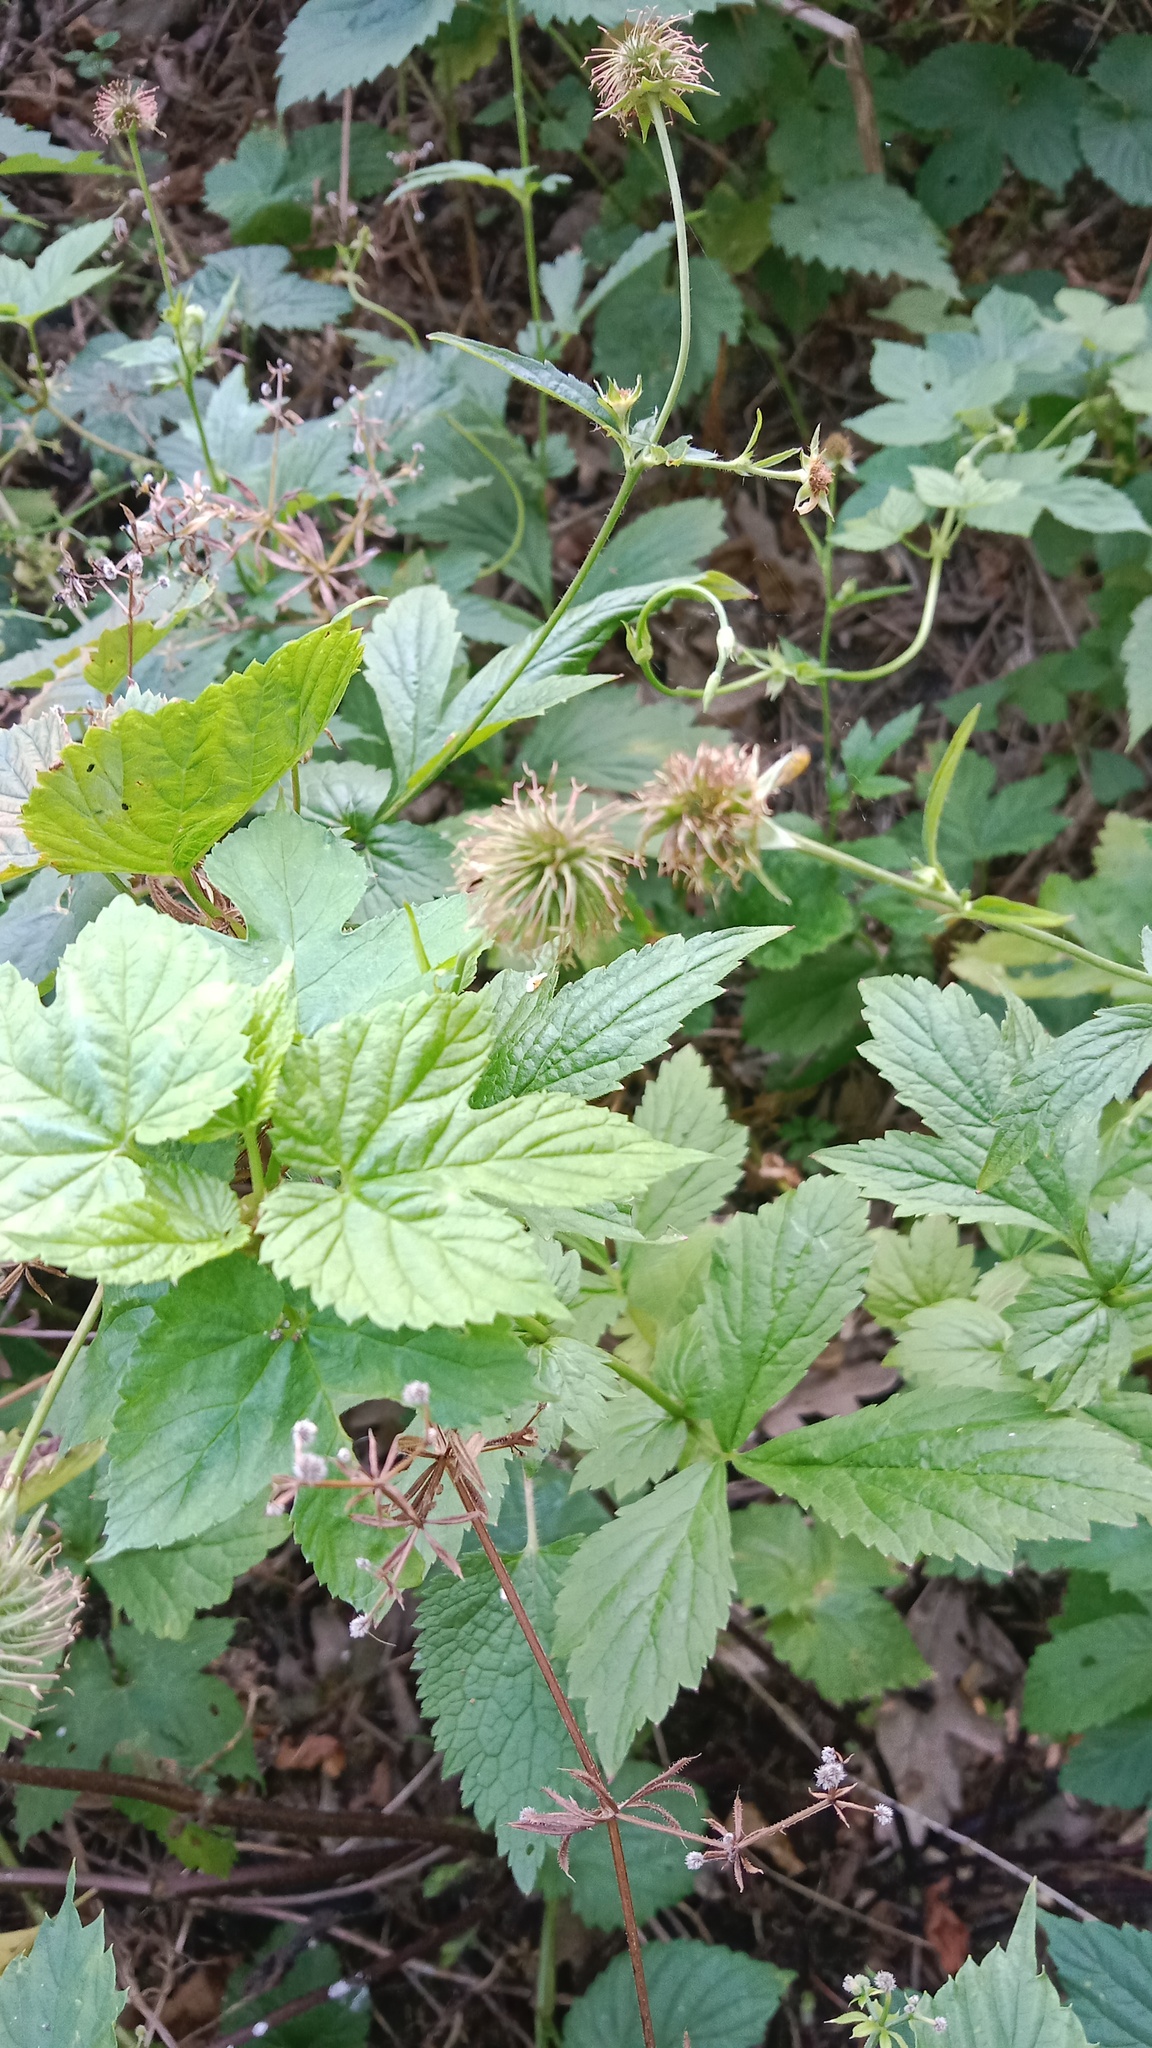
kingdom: Plantae
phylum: Tracheophyta
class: Magnoliopsida
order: Rosales
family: Cannabaceae
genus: Humulus
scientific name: Humulus lupulus
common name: Hop
